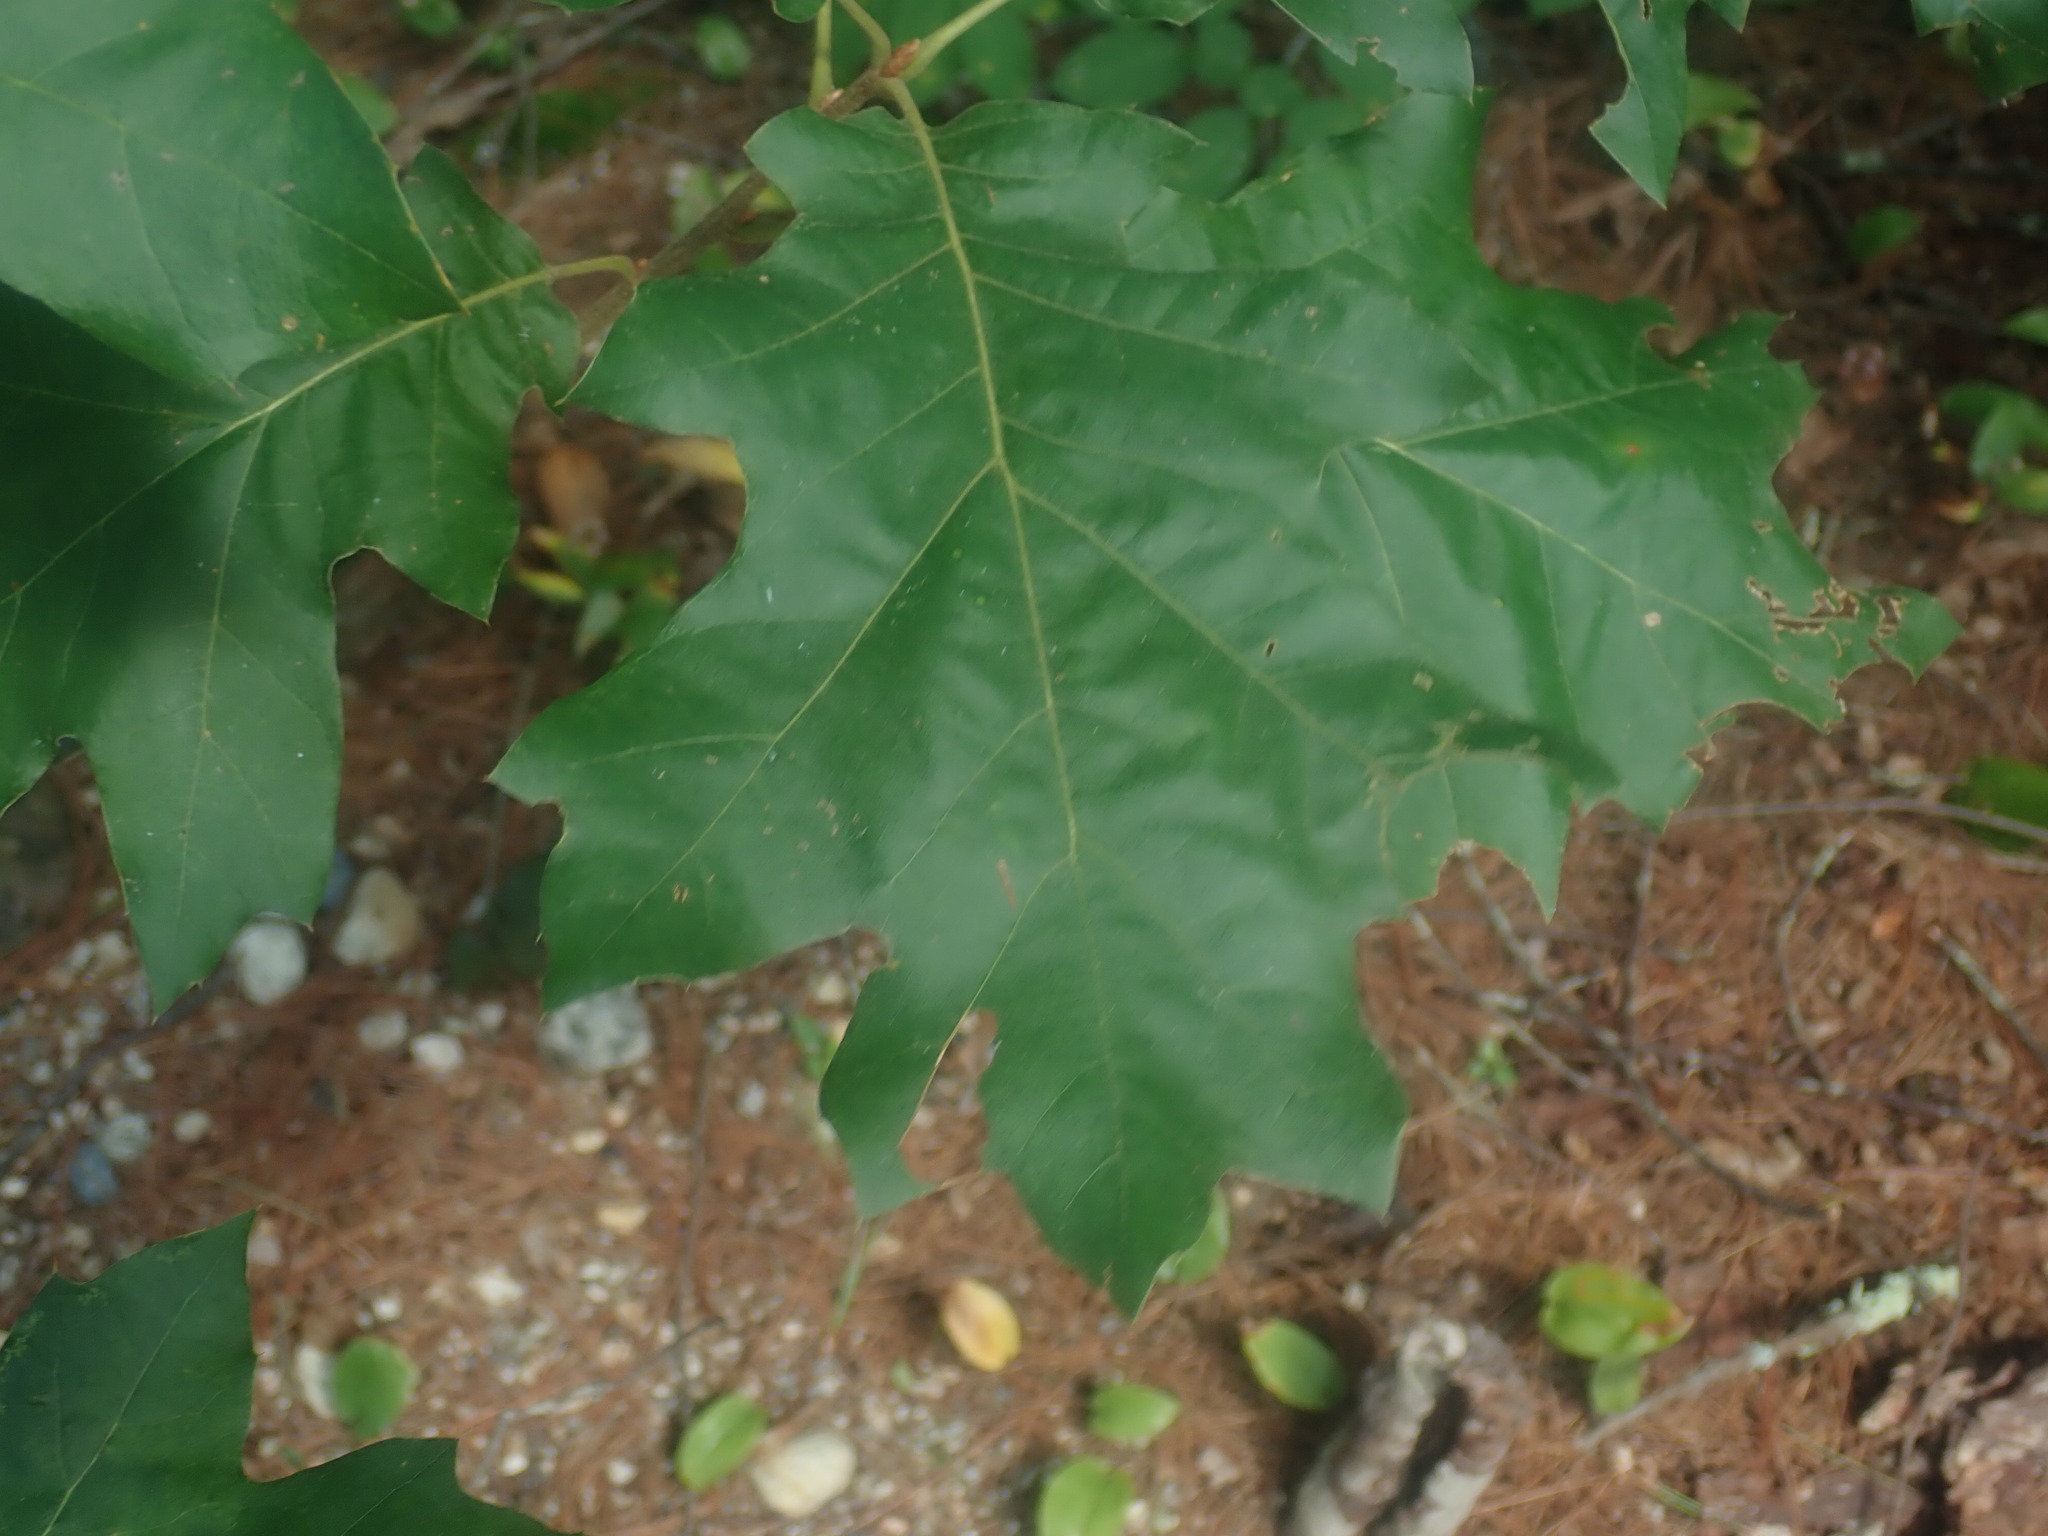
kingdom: Plantae
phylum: Tracheophyta
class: Magnoliopsida
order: Fagales
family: Fagaceae
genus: Quercus
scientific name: Quercus velutina
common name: Black oak
